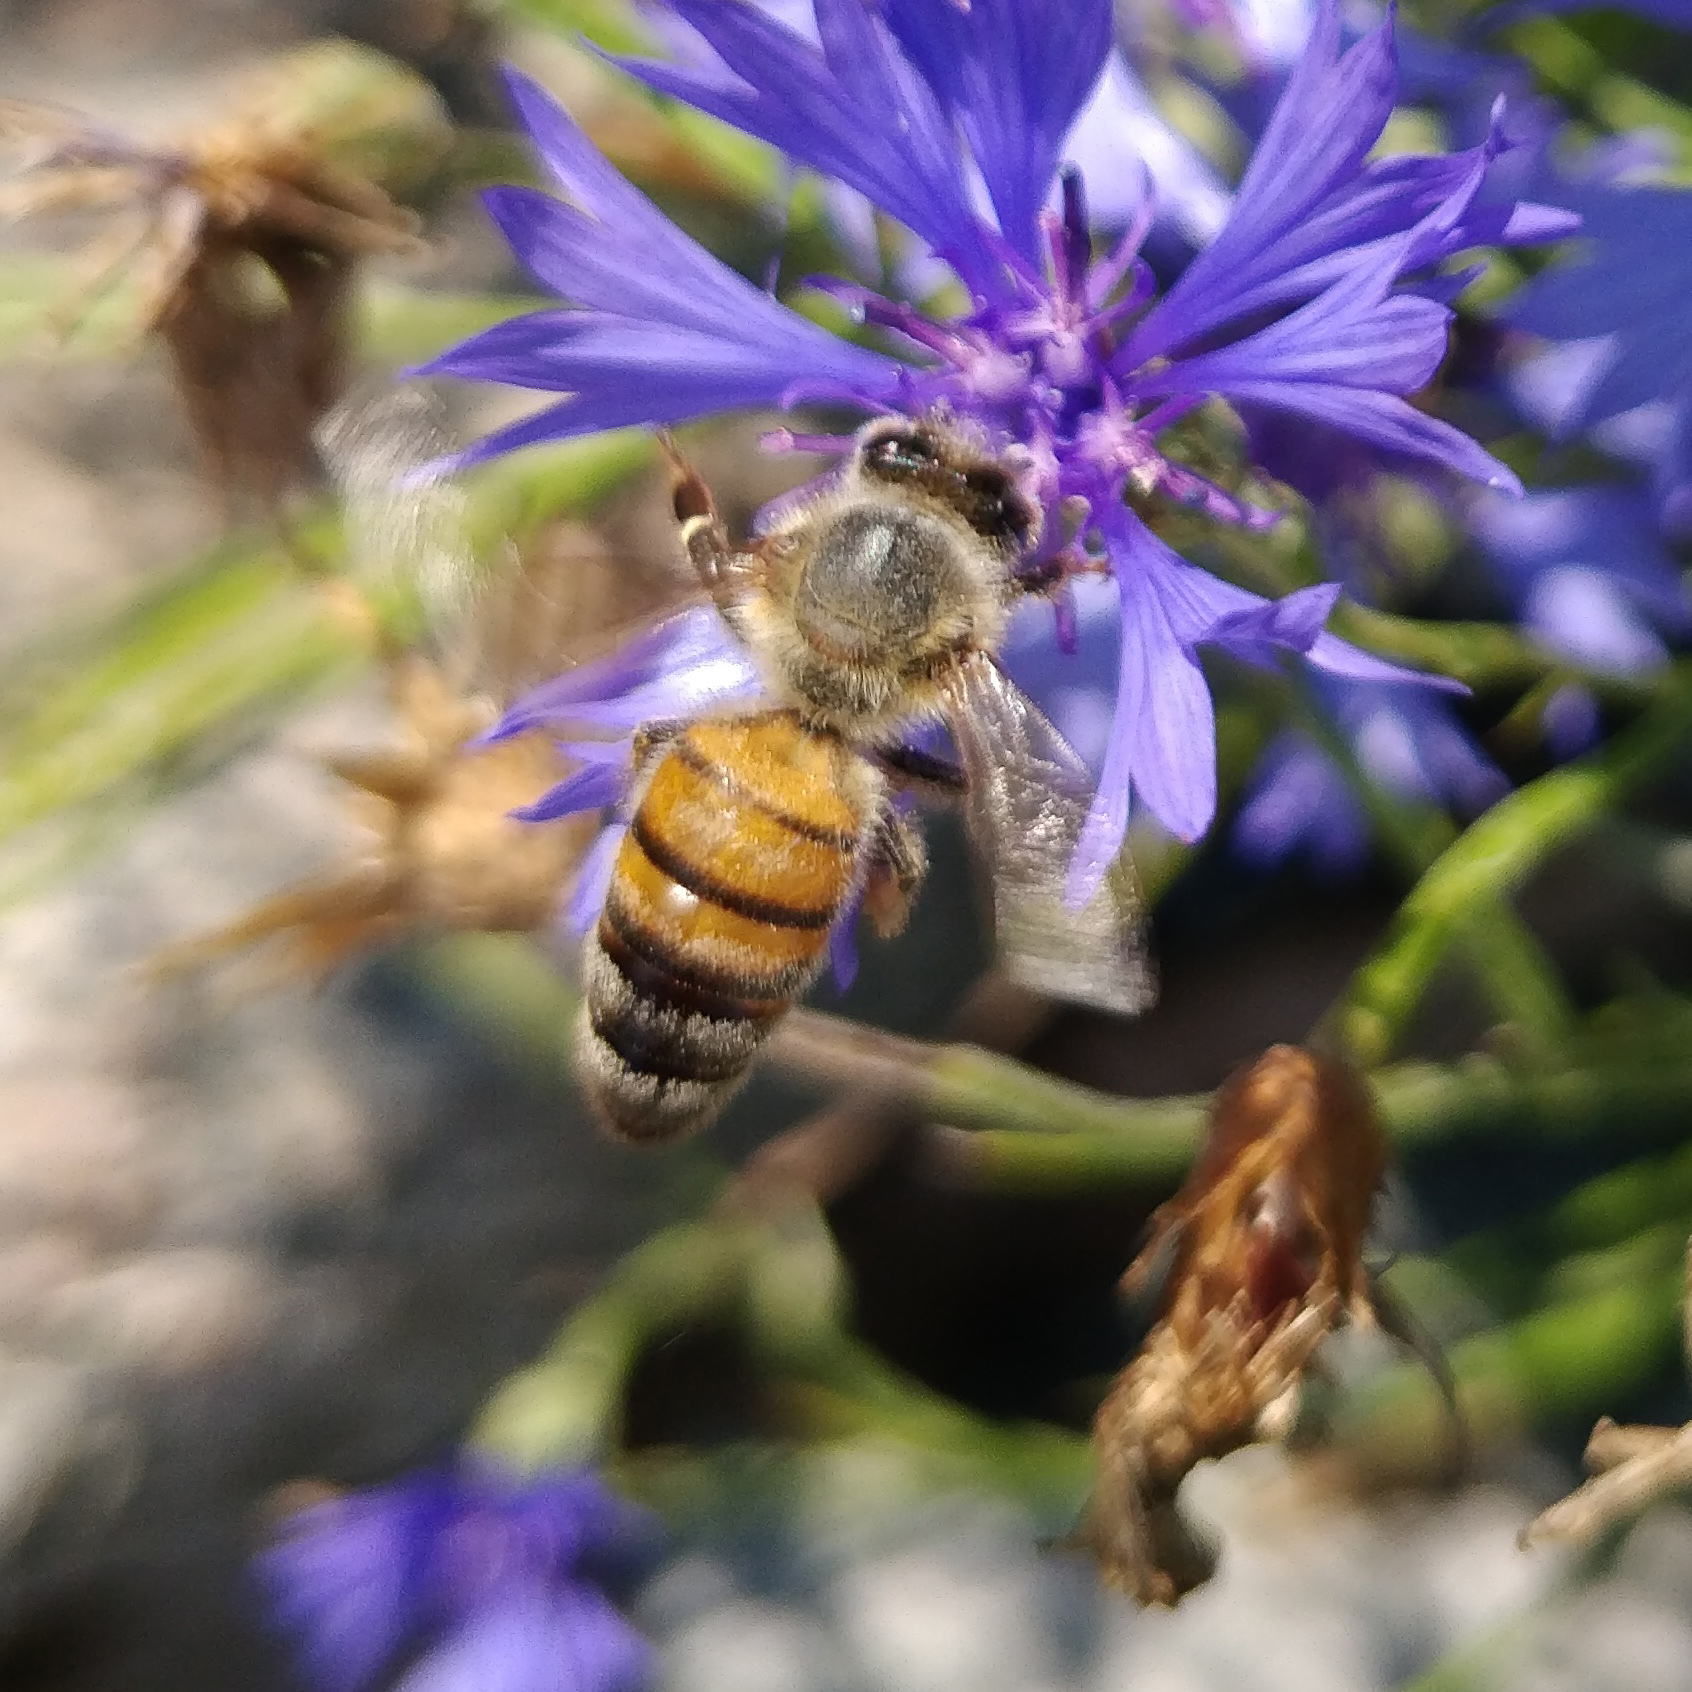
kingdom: Animalia
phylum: Arthropoda
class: Insecta
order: Hymenoptera
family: Apidae
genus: Apis
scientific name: Apis mellifera
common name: Honey bee
